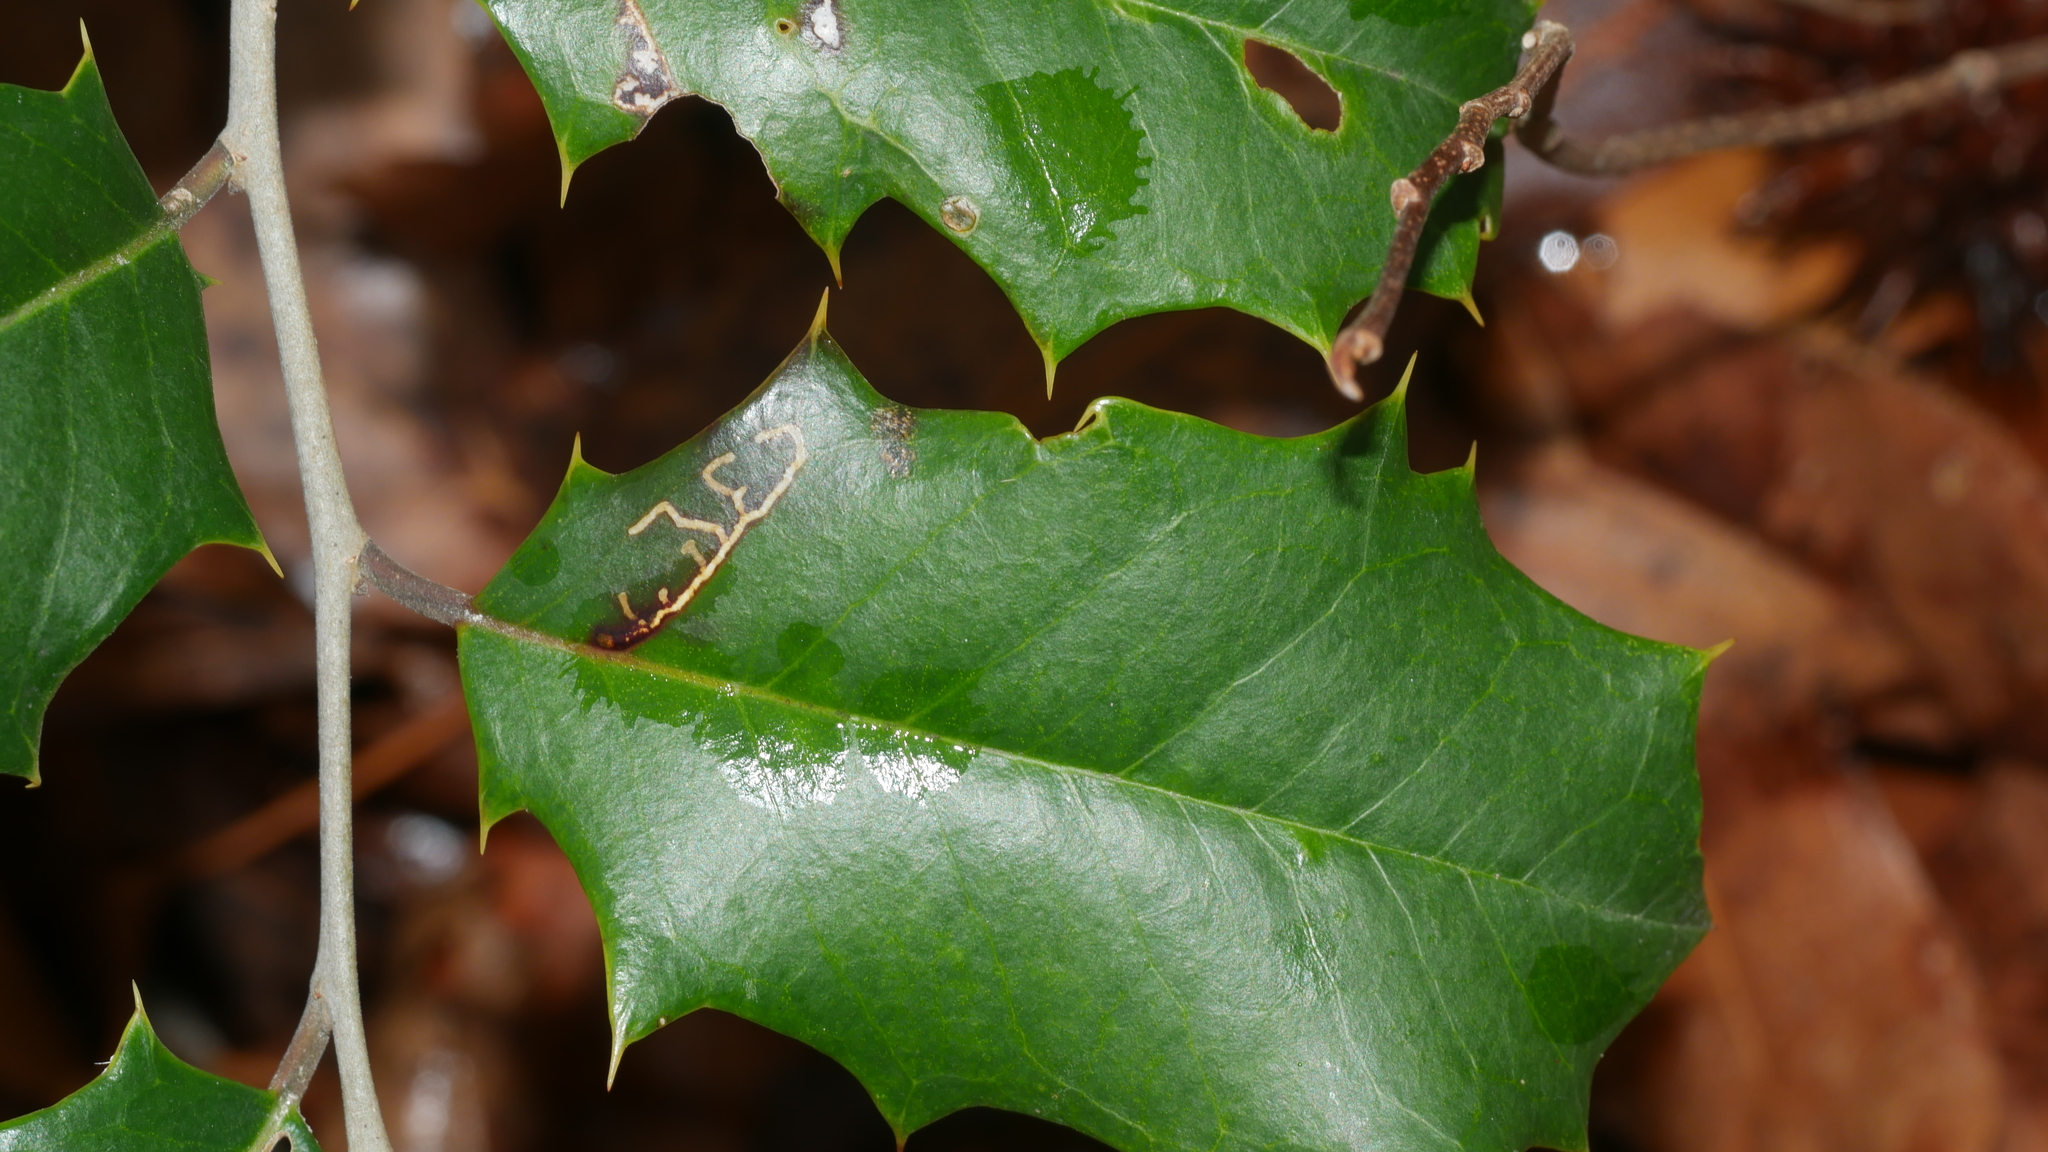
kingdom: Animalia
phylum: Arthropoda
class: Insecta
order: Lepidoptera
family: Tortricidae
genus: Rhopobota
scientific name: Rhopobota
